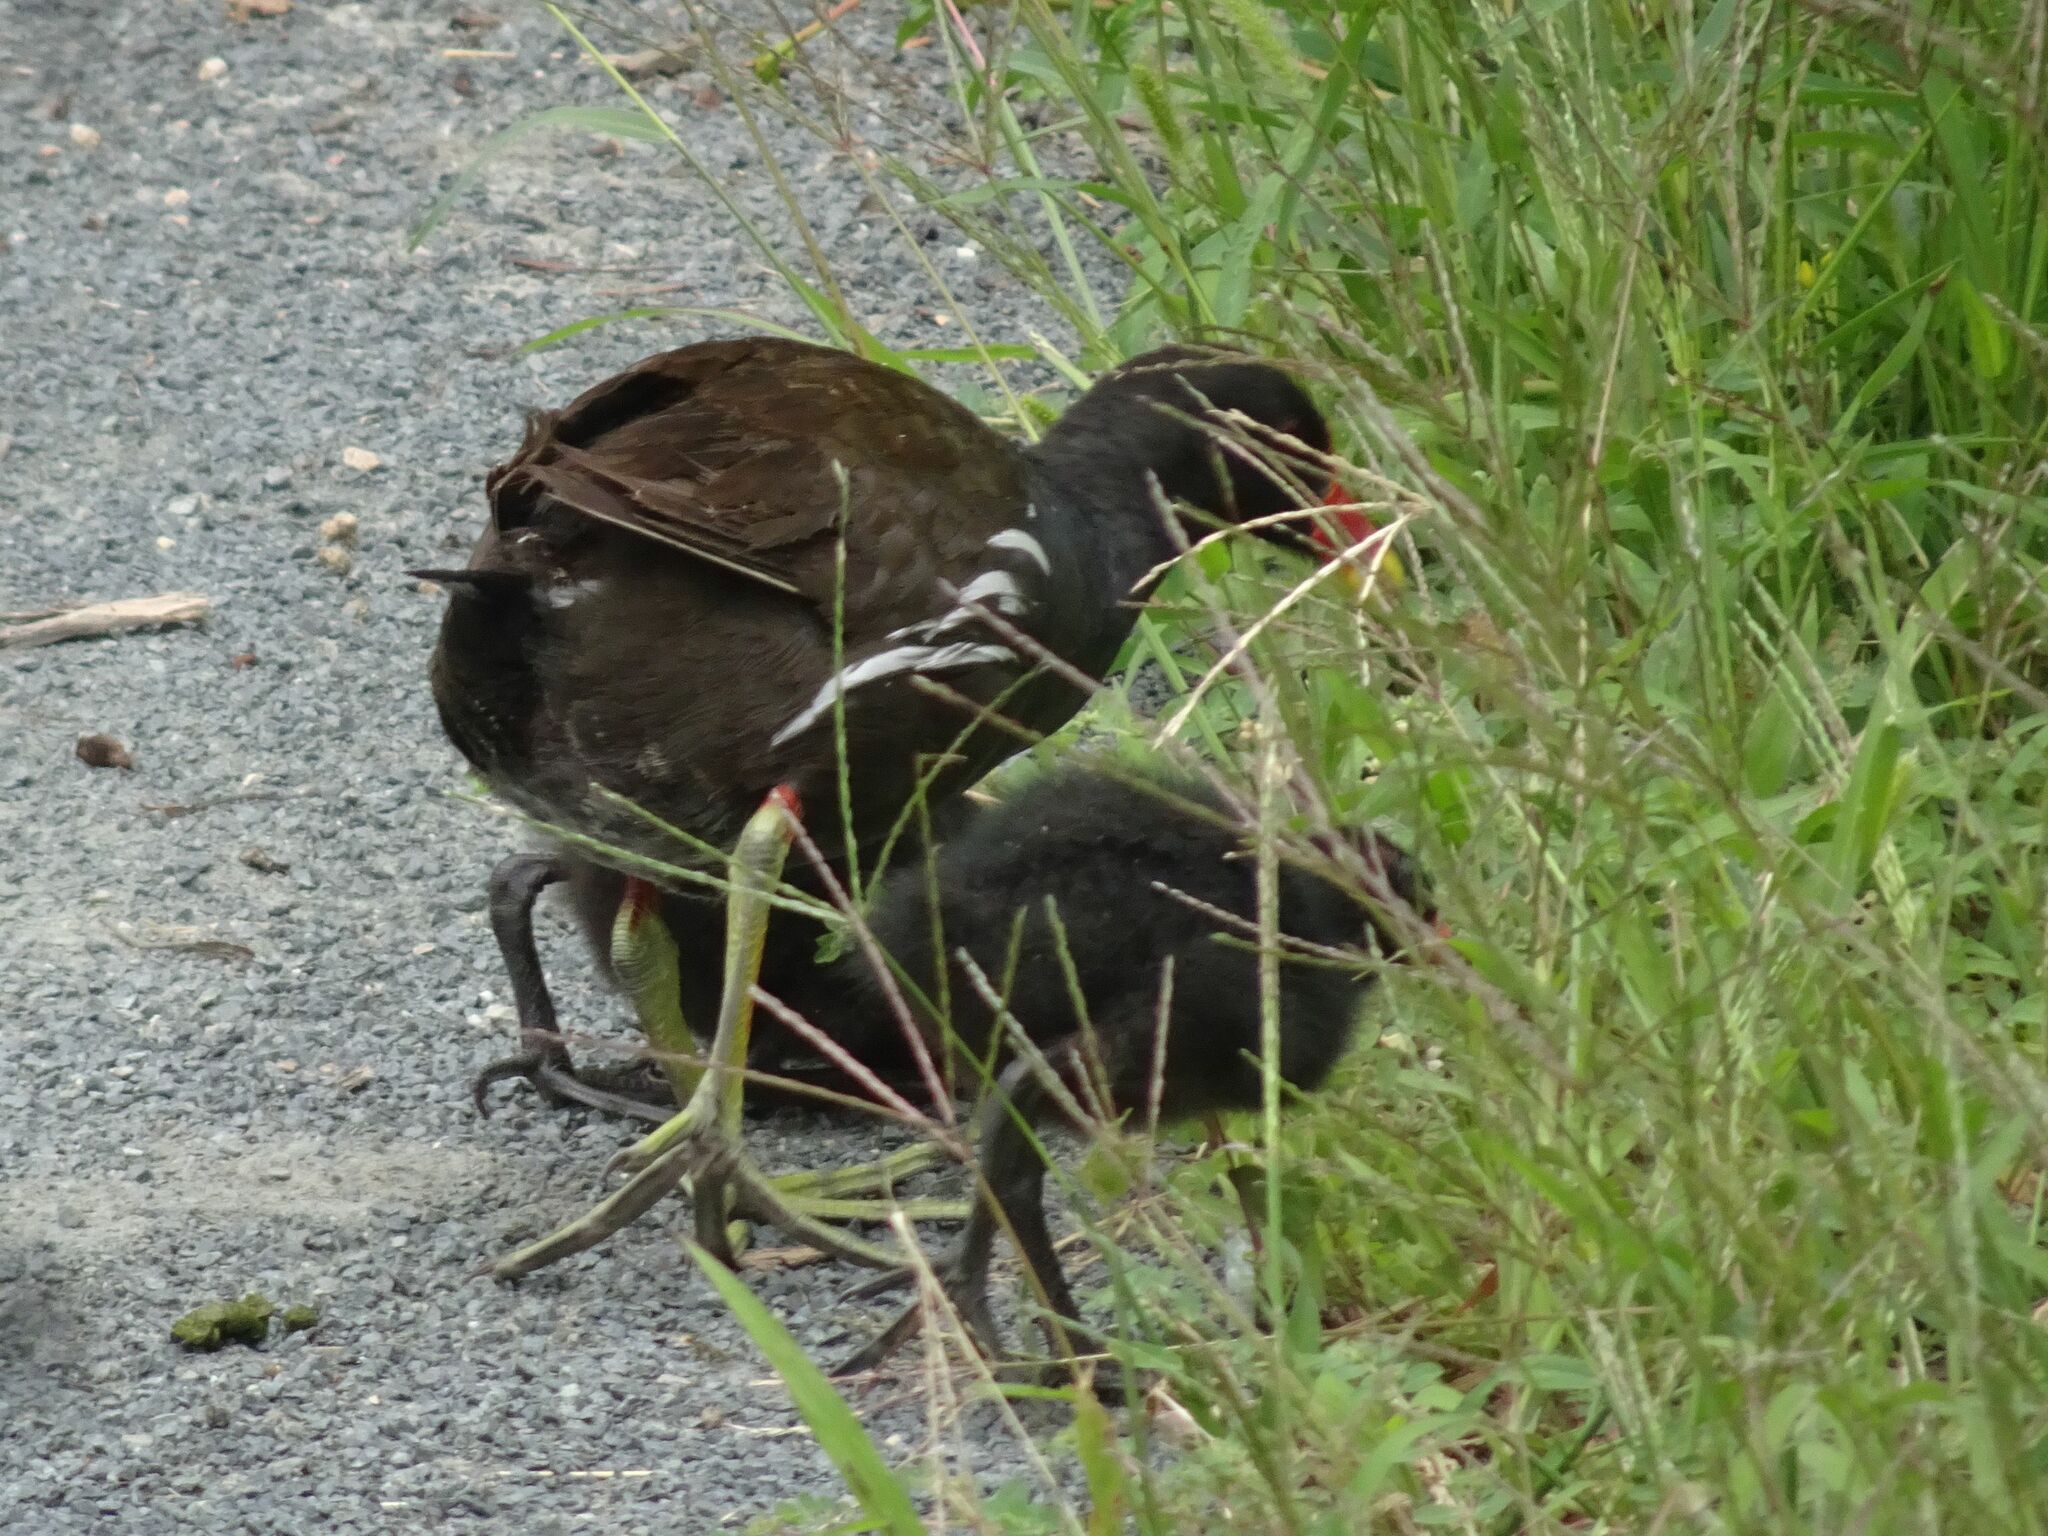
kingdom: Animalia
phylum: Chordata
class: Aves
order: Gruiformes
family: Rallidae
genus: Gallinula
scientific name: Gallinula chloropus
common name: Common moorhen
